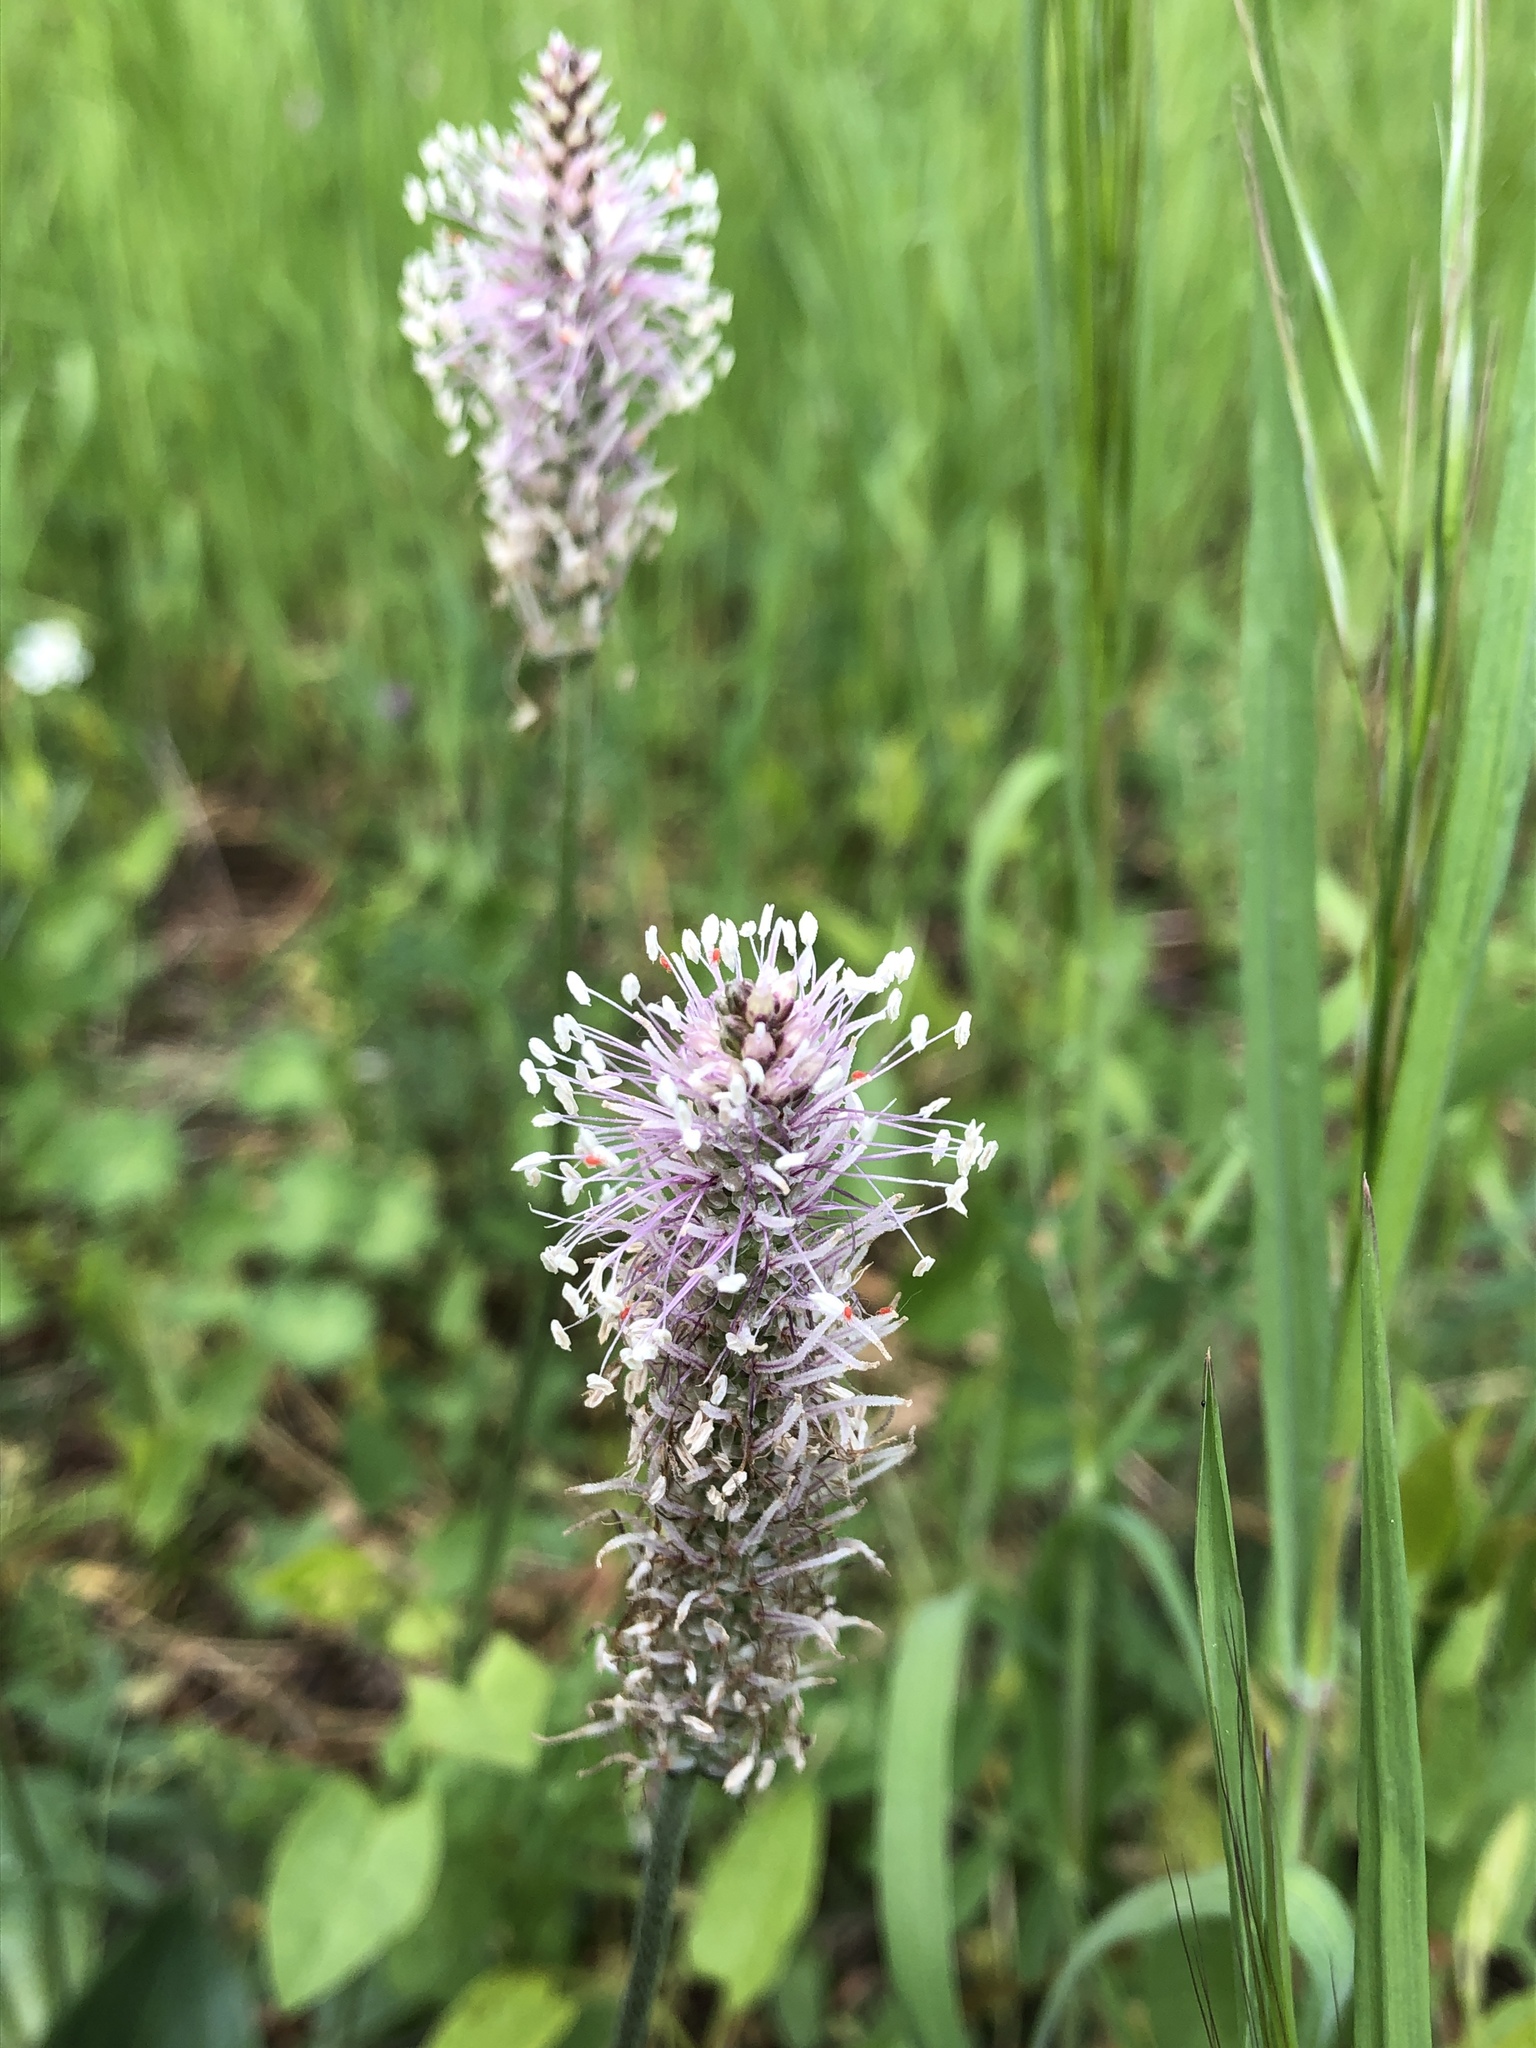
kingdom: Plantae
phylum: Tracheophyta
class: Magnoliopsida
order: Lamiales
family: Plantaginaceae
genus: Plantago
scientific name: Plantago media
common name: Hoary plantain
